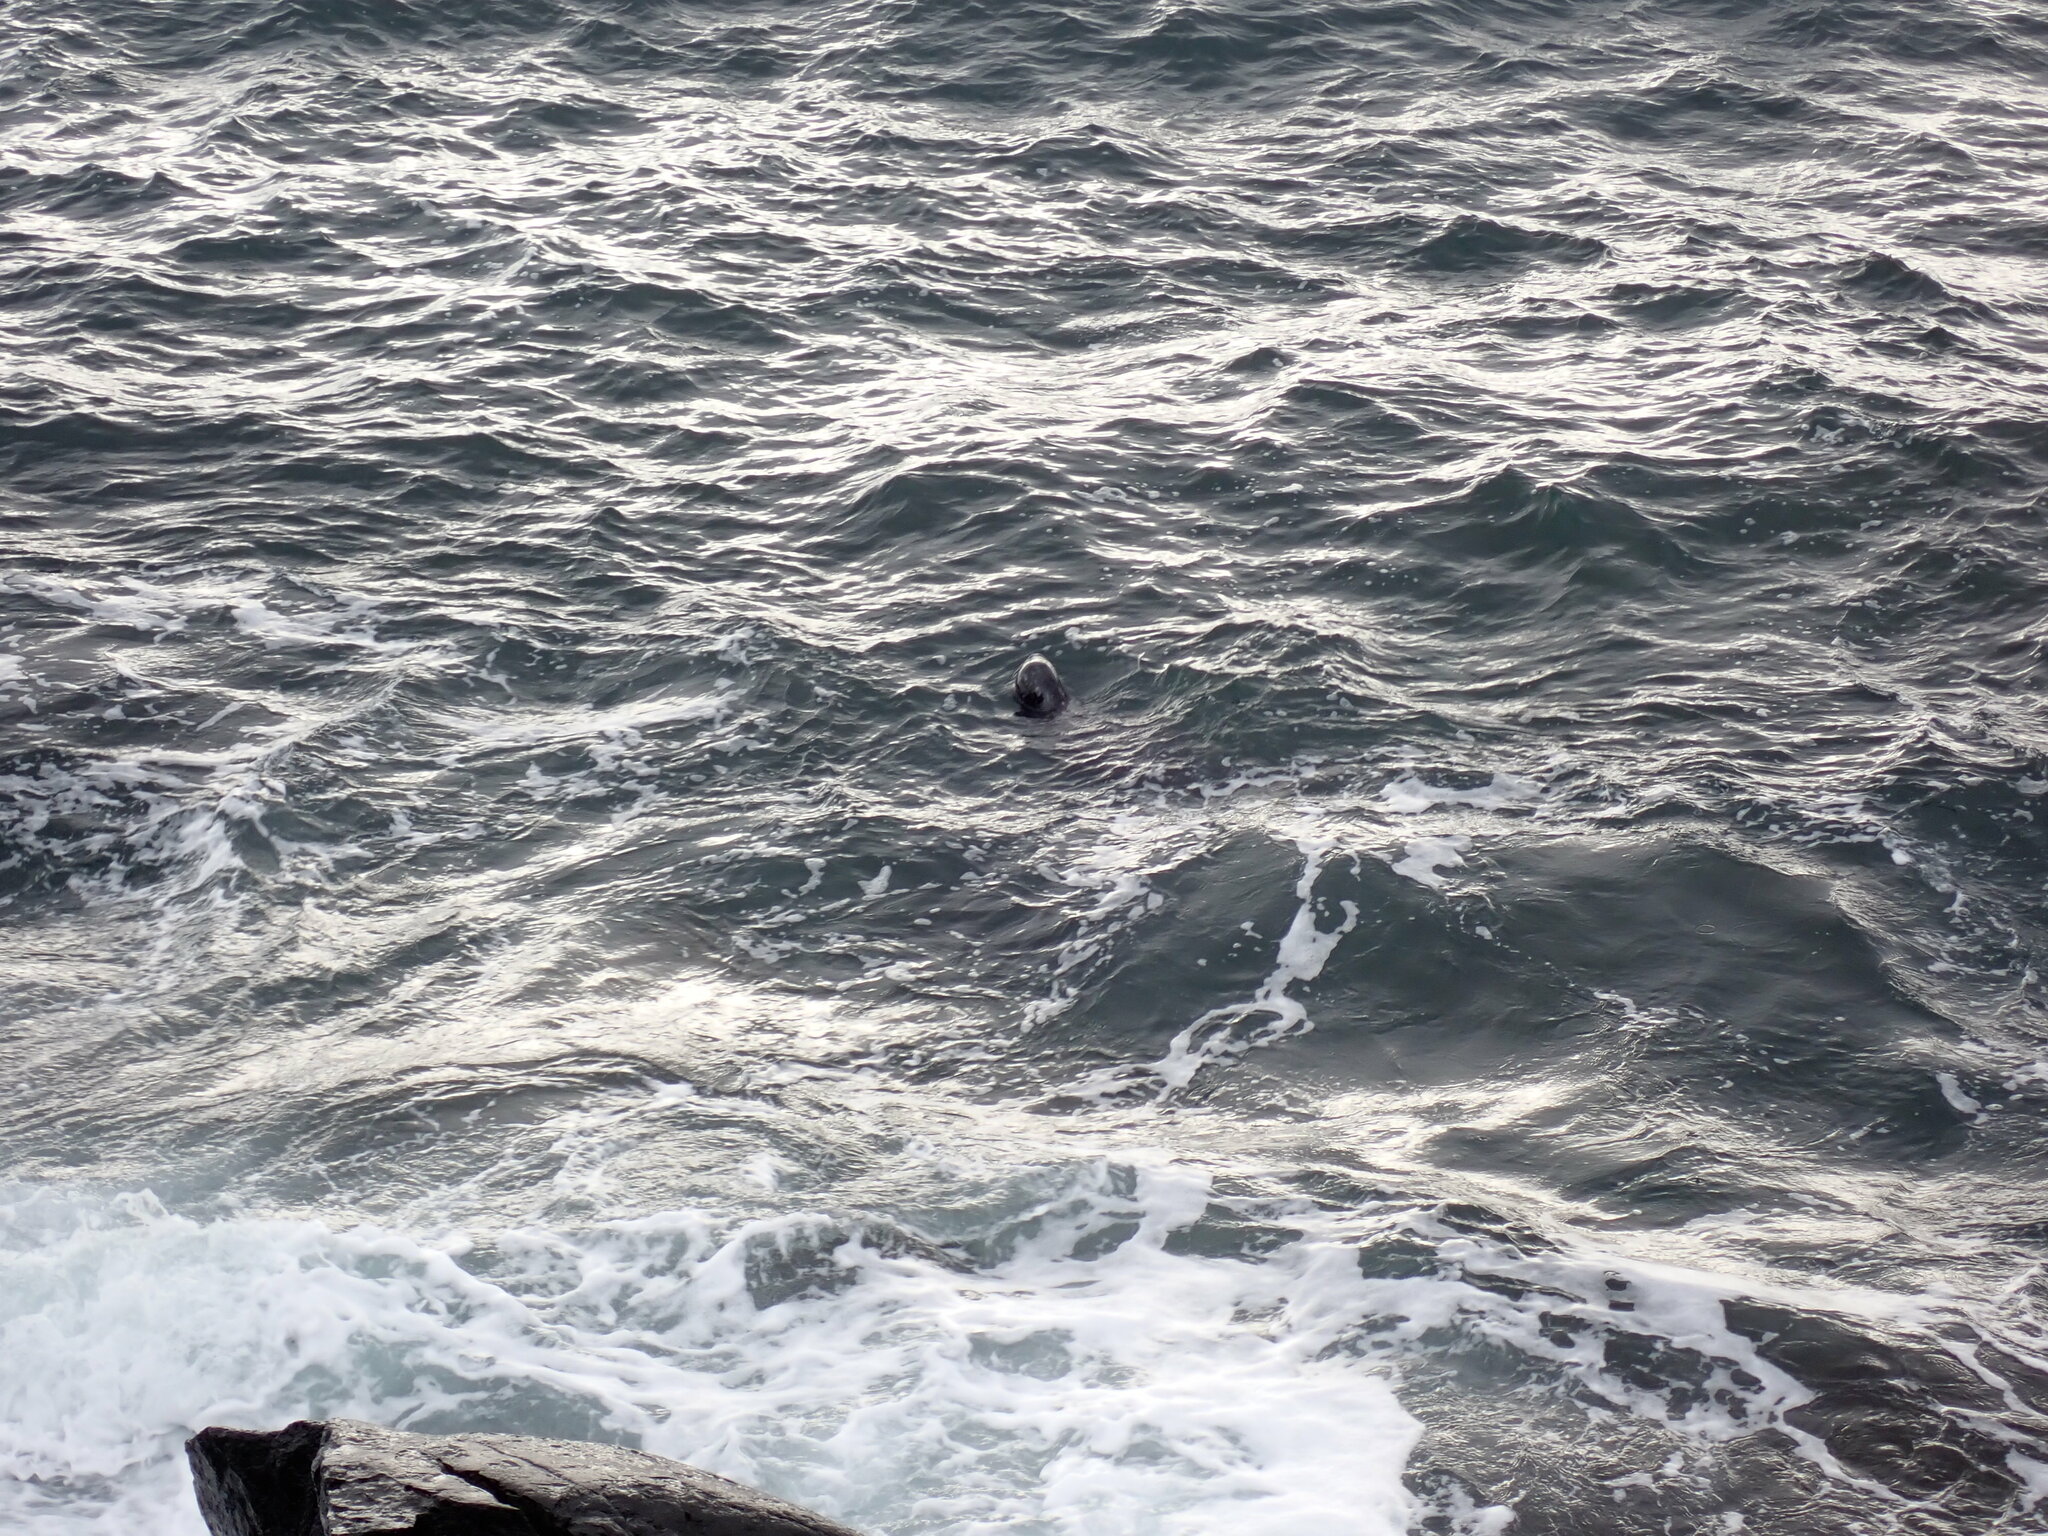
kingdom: Animalia
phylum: Chordata
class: Mammalia
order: Carnivora
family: Phocidae
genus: Phoca
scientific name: Phoca vitulina
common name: Harbor seal
